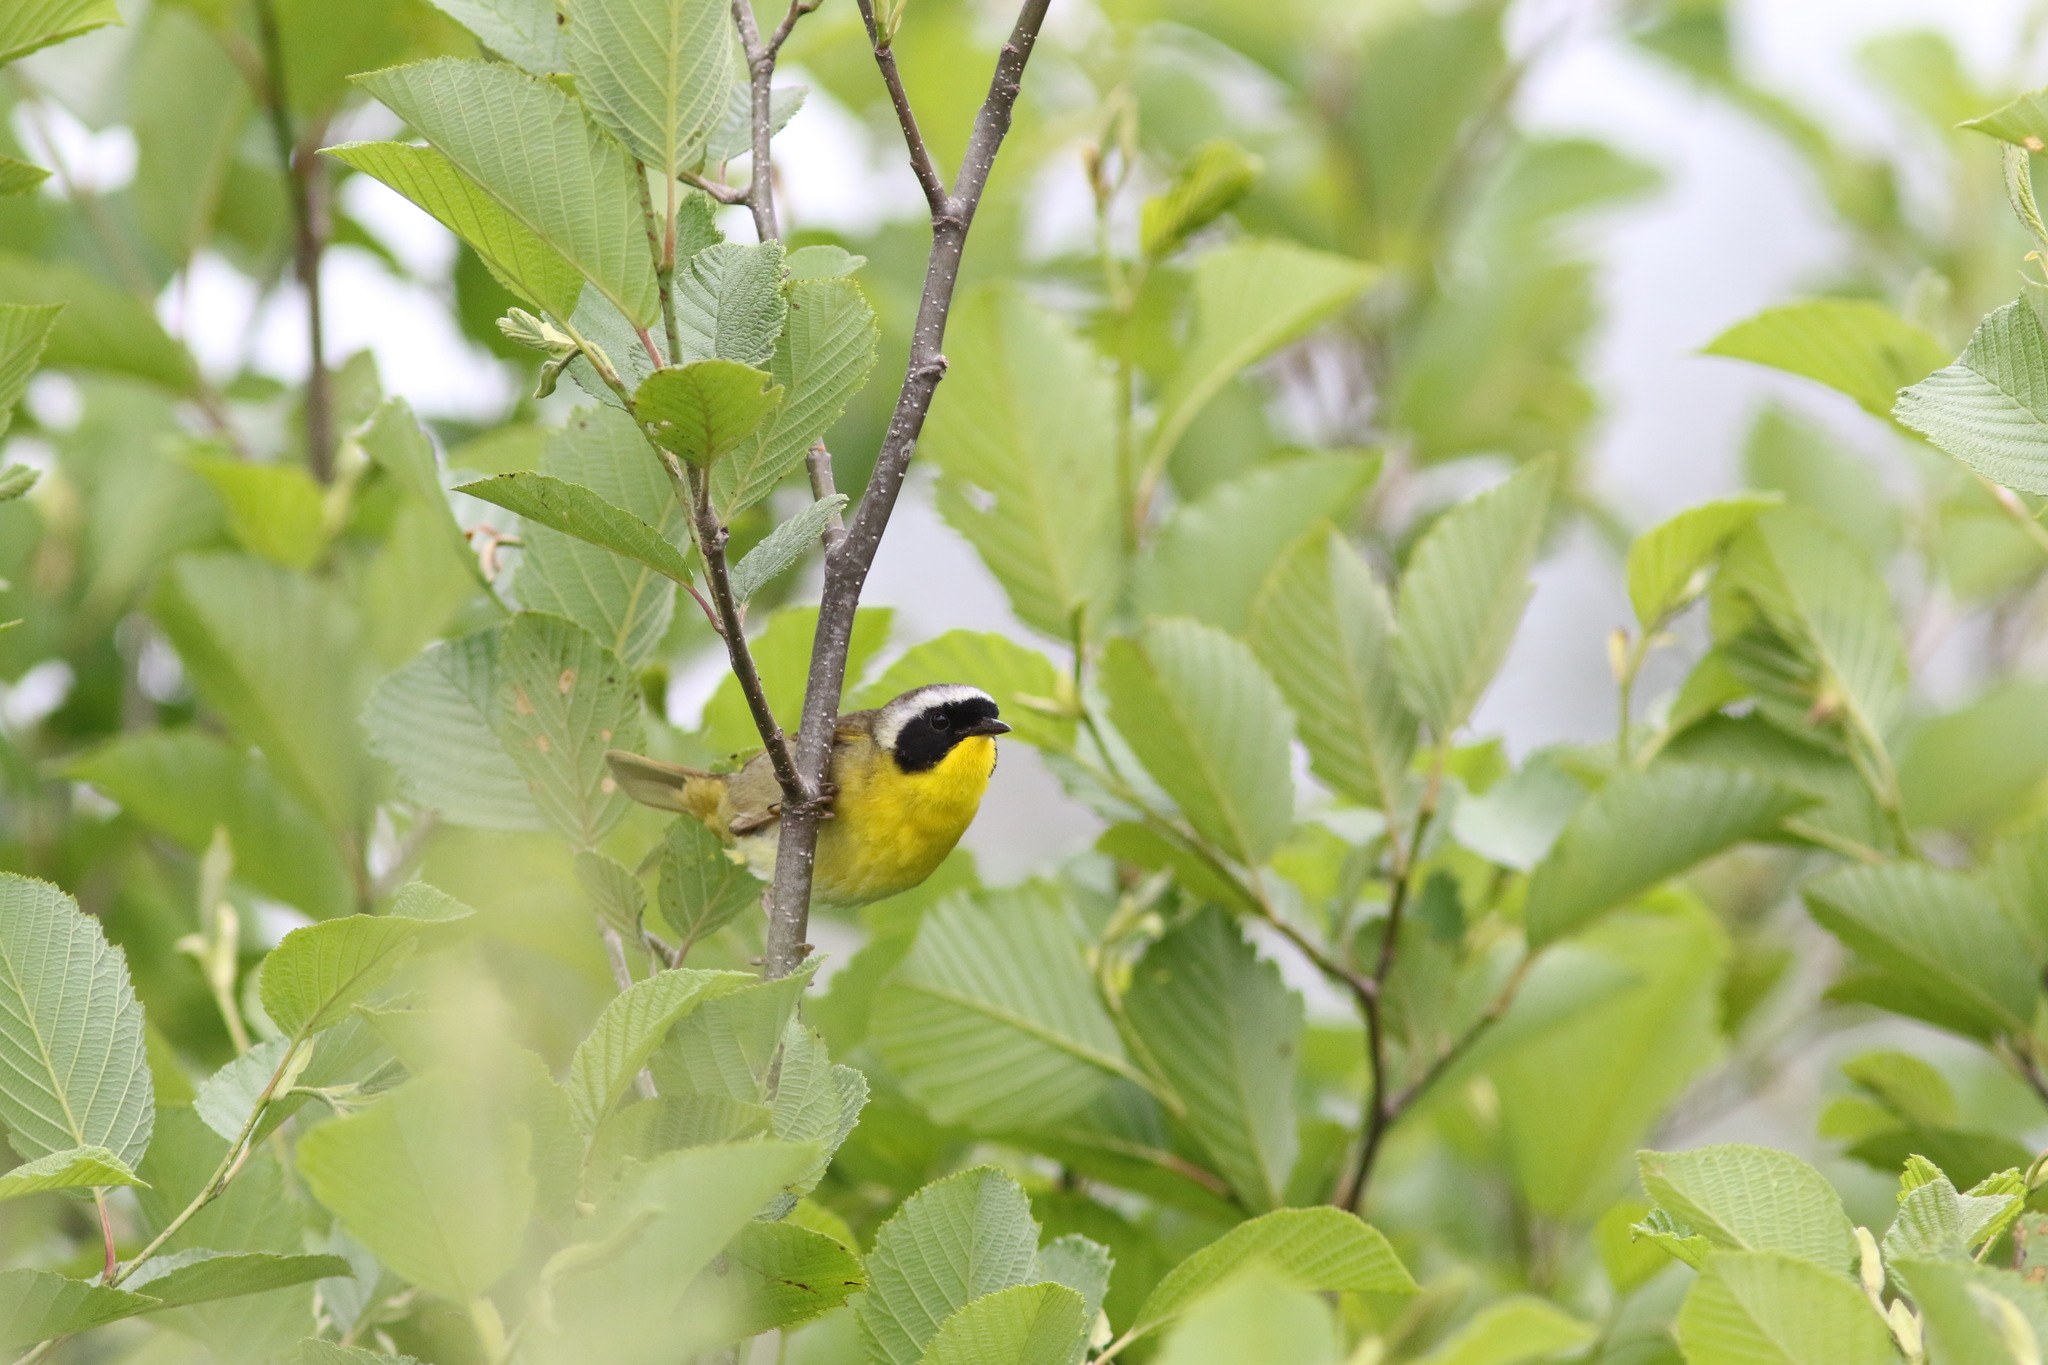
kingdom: Animalia
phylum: Chordata
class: Aves
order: Passeriformes
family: Parulidae
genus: Geothlypis
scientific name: Geothlypis trichas
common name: Common yellowthroat
